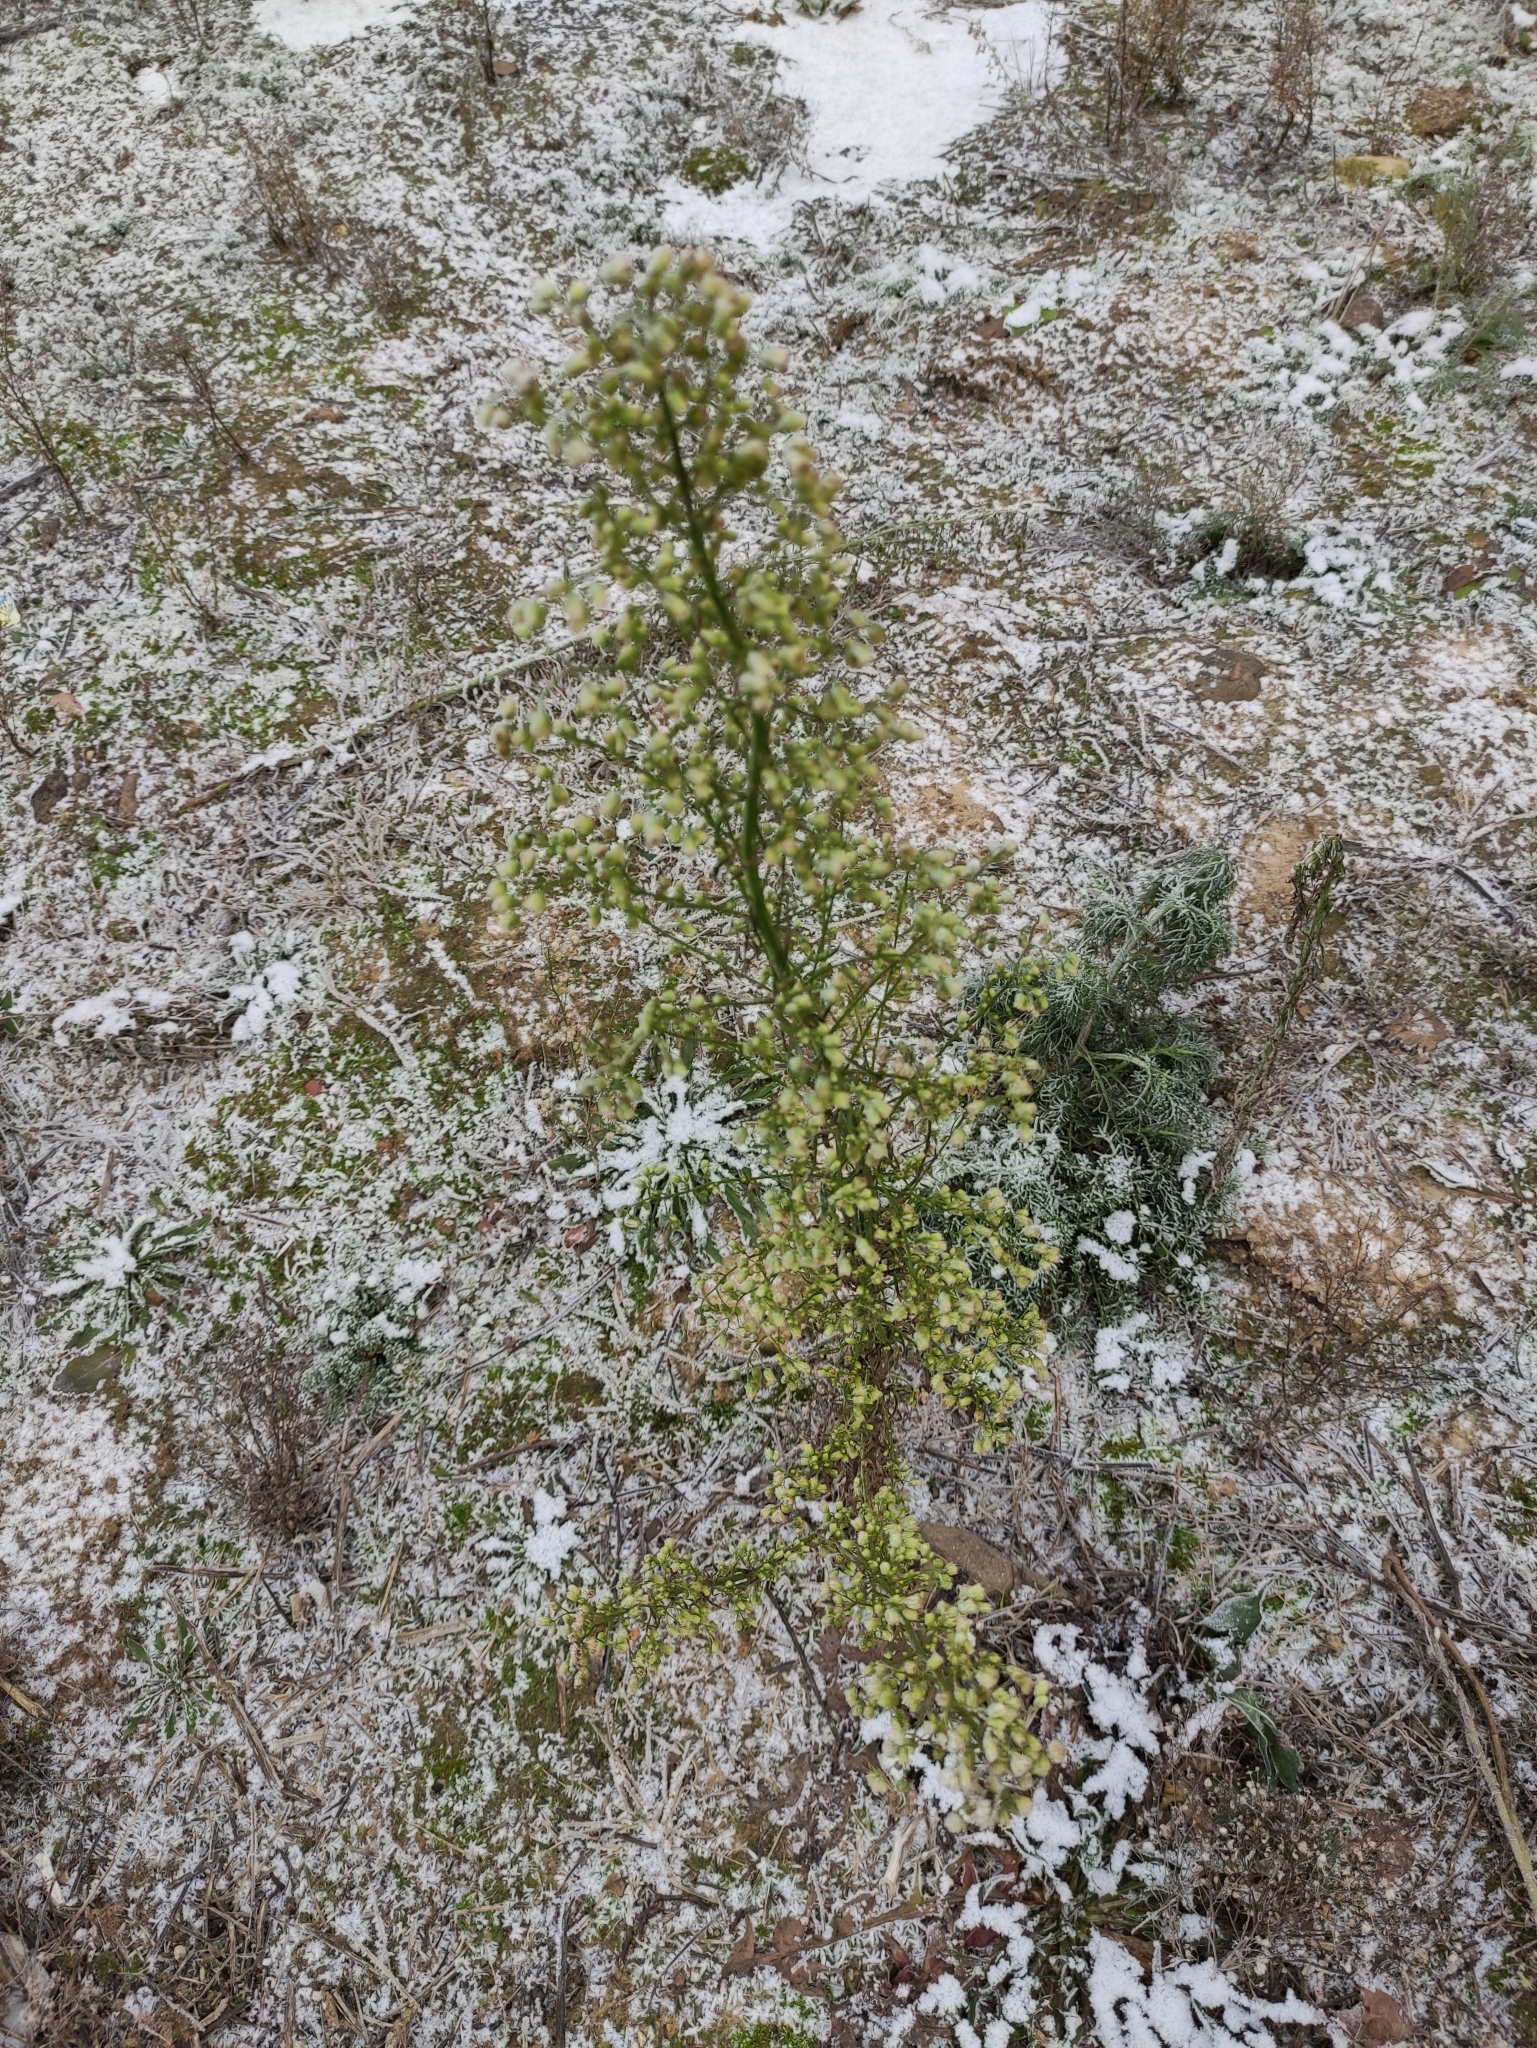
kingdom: Plantae
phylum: Tracheophyta
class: Magnoliopsida
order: Asterales
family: Asteraceae
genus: Erigeron
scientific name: Erigeron canadensis
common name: Canadian fleabane
